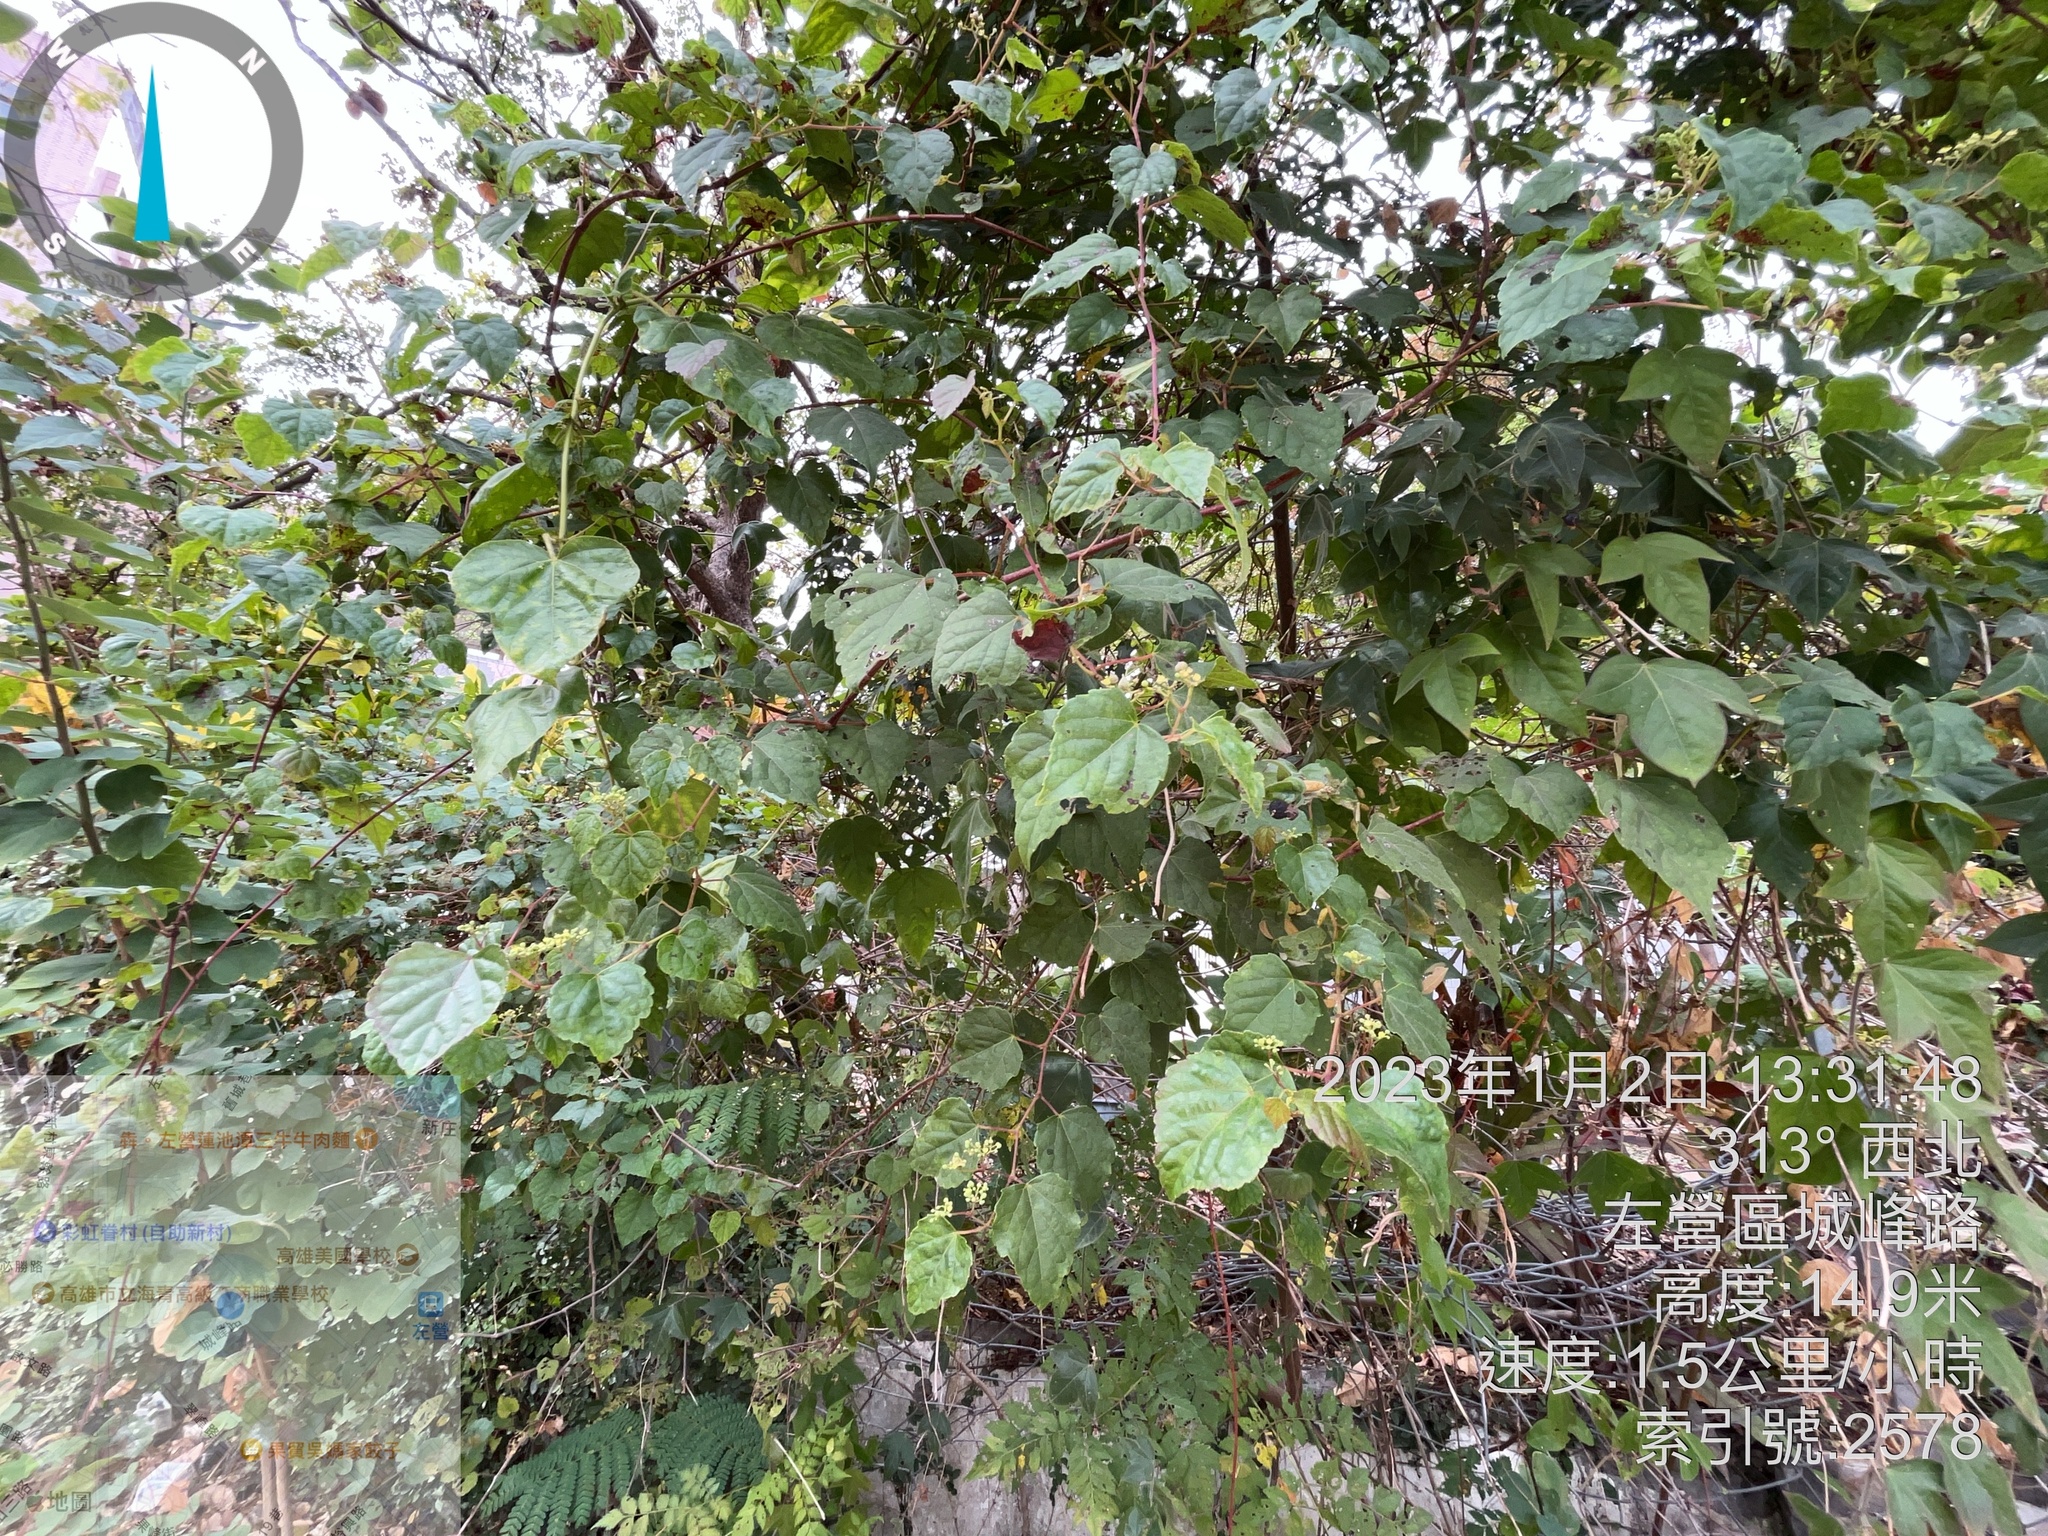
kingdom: Plantae
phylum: Tracheophyta
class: Magnoliopsida
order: Vitales
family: Vitaceae
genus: Ampelopsis
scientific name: Ampelopsis glandulosa
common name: Amur peppervine
